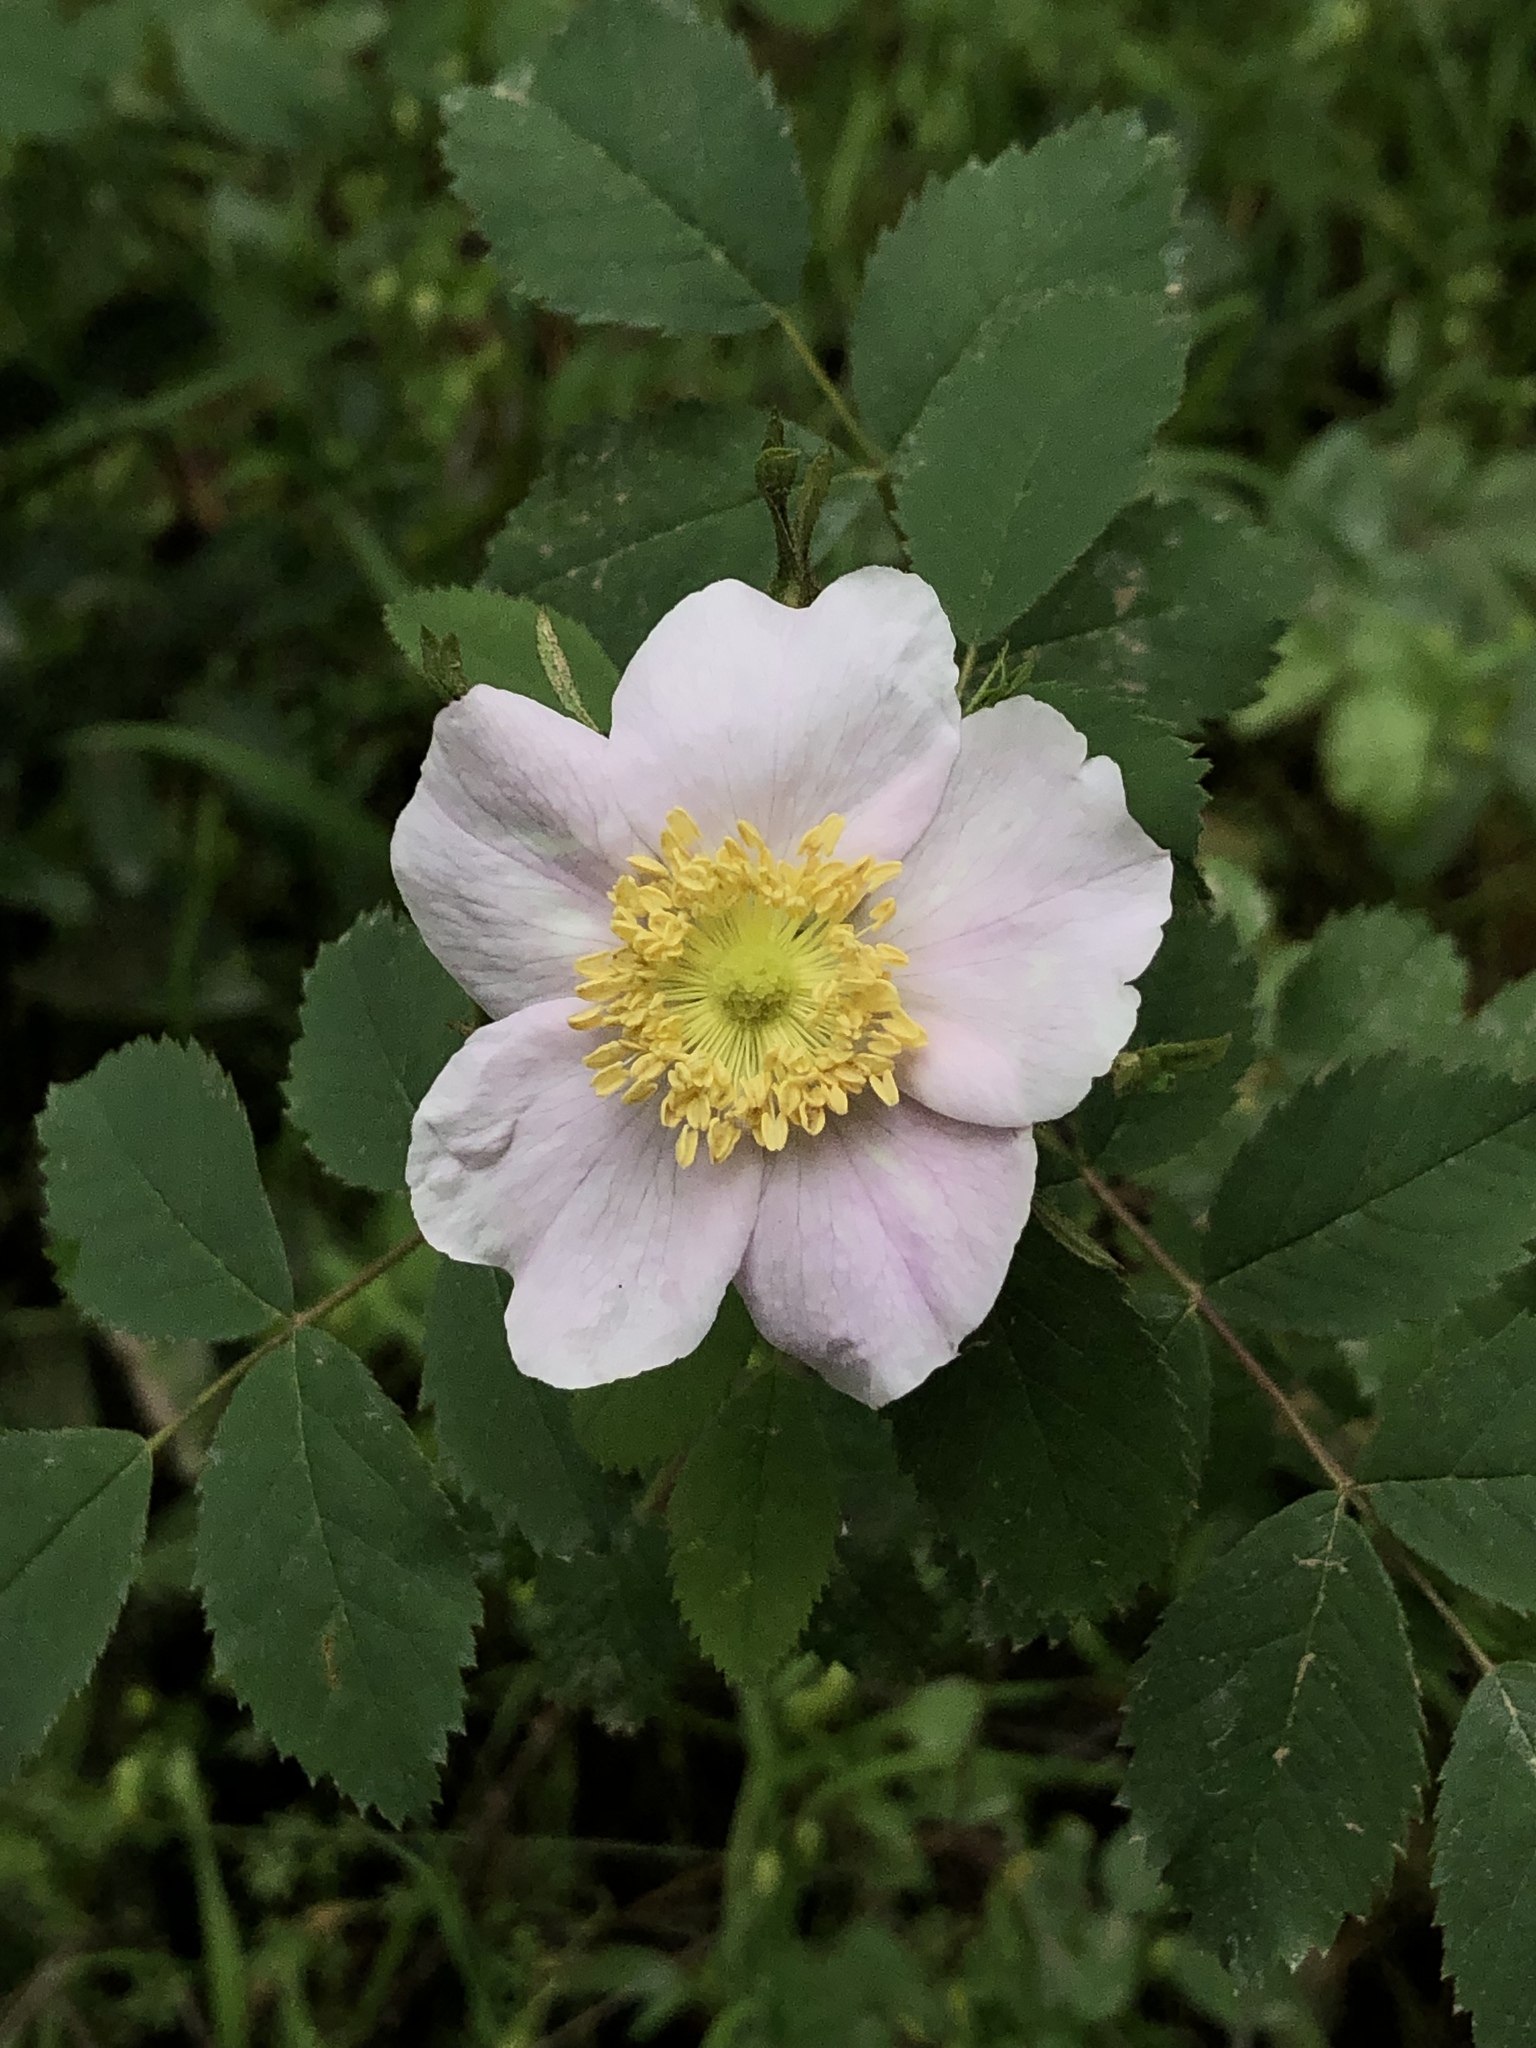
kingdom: Plantae
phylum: Tracheophyta
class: Magnoliopsida
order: Rosales
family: Rosaceae
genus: Rosa
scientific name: Rosa californica
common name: California rose
